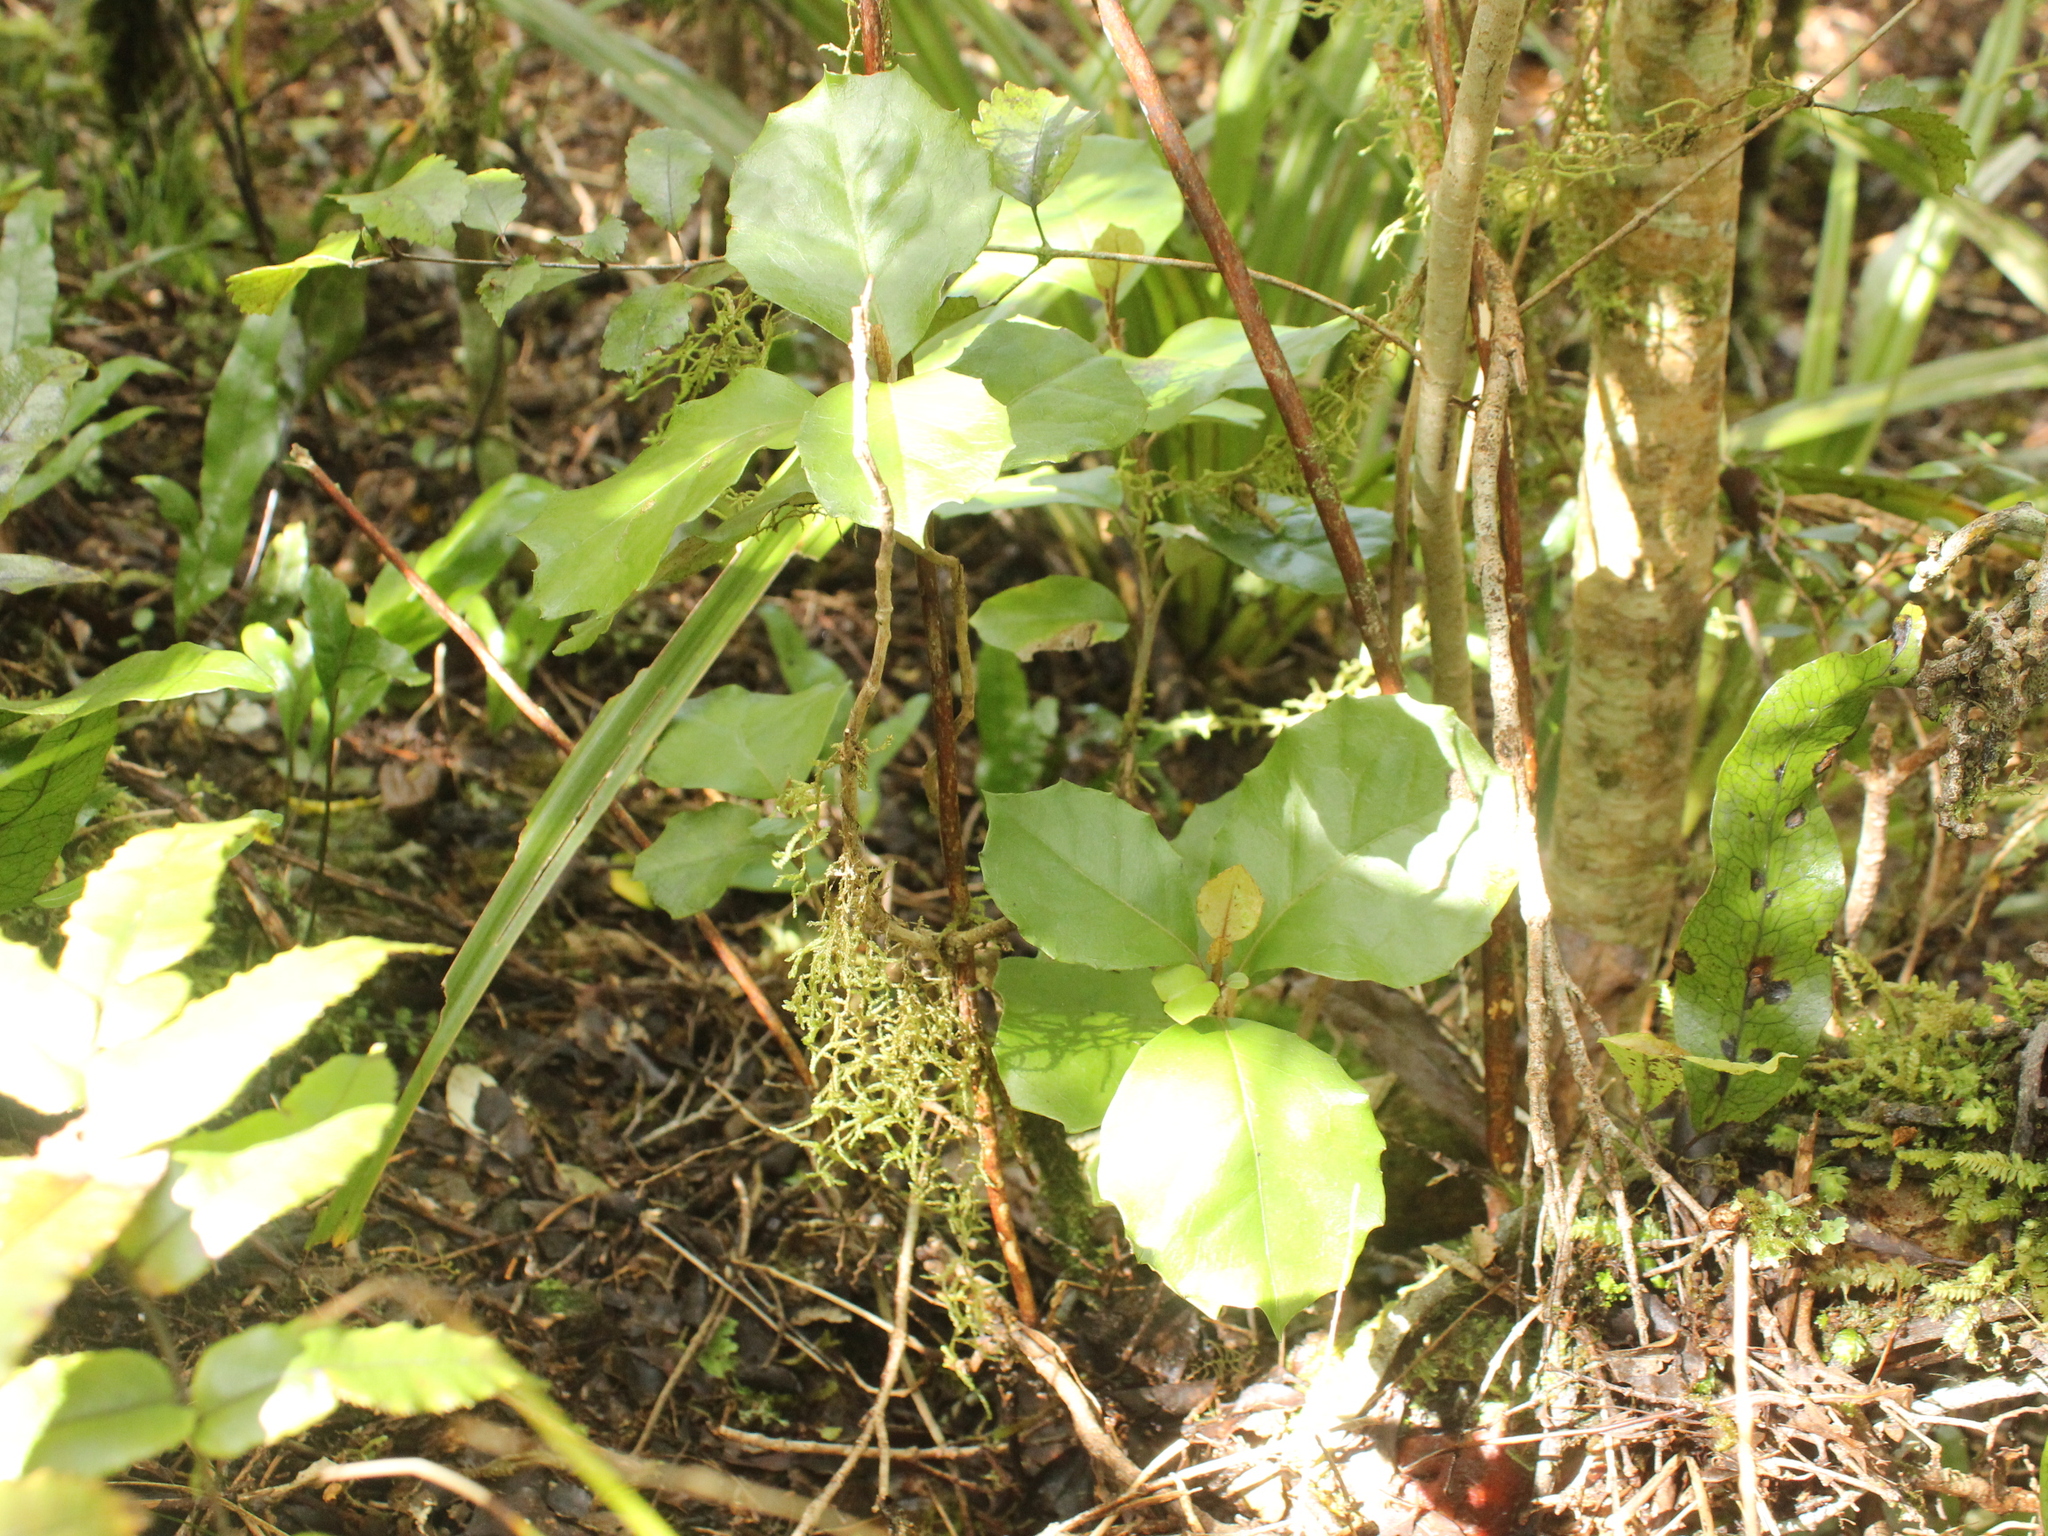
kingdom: Plantae
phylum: Tracheophyta
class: Magnoliopsida
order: Asterales
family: Asteraceae
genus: Olearia
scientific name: Olearia arborescens
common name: Glossy tree daisy
